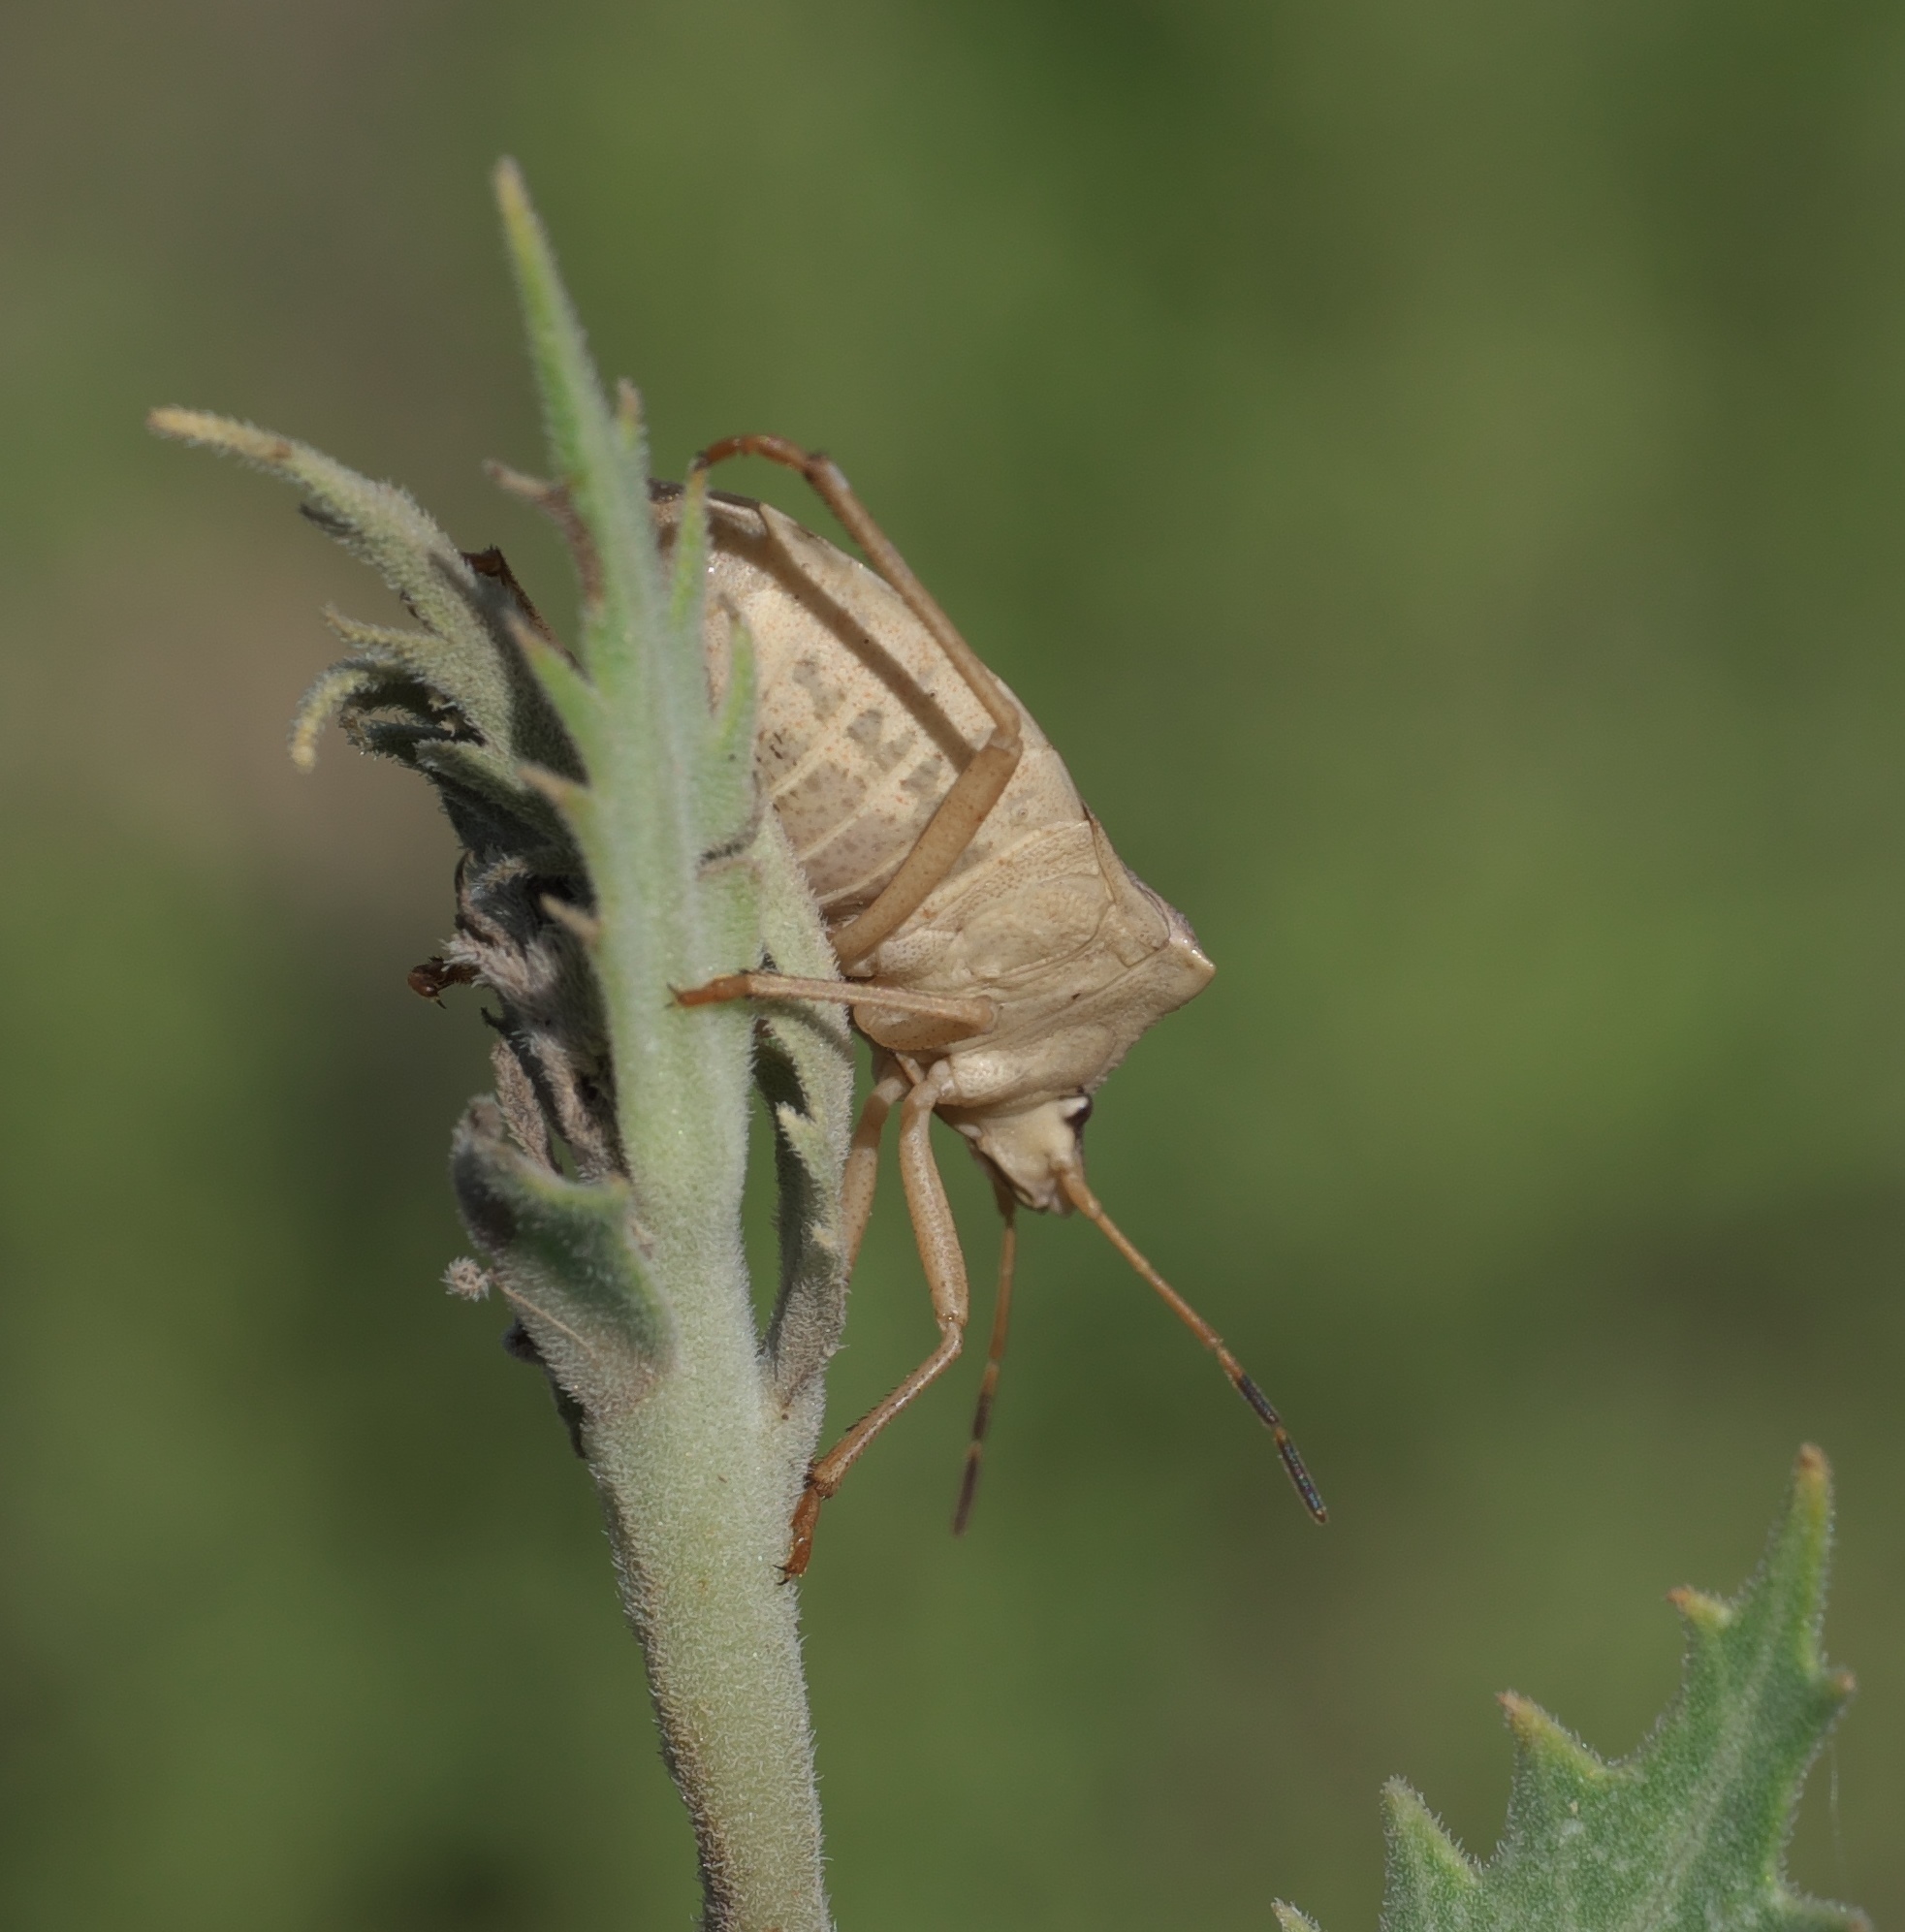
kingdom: Animalia
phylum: Arthropoda
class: Insecta
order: Hemiptera
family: Pentatomidae
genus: Euschistus
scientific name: Euschistus variolarius
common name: Onespotted stink bug
